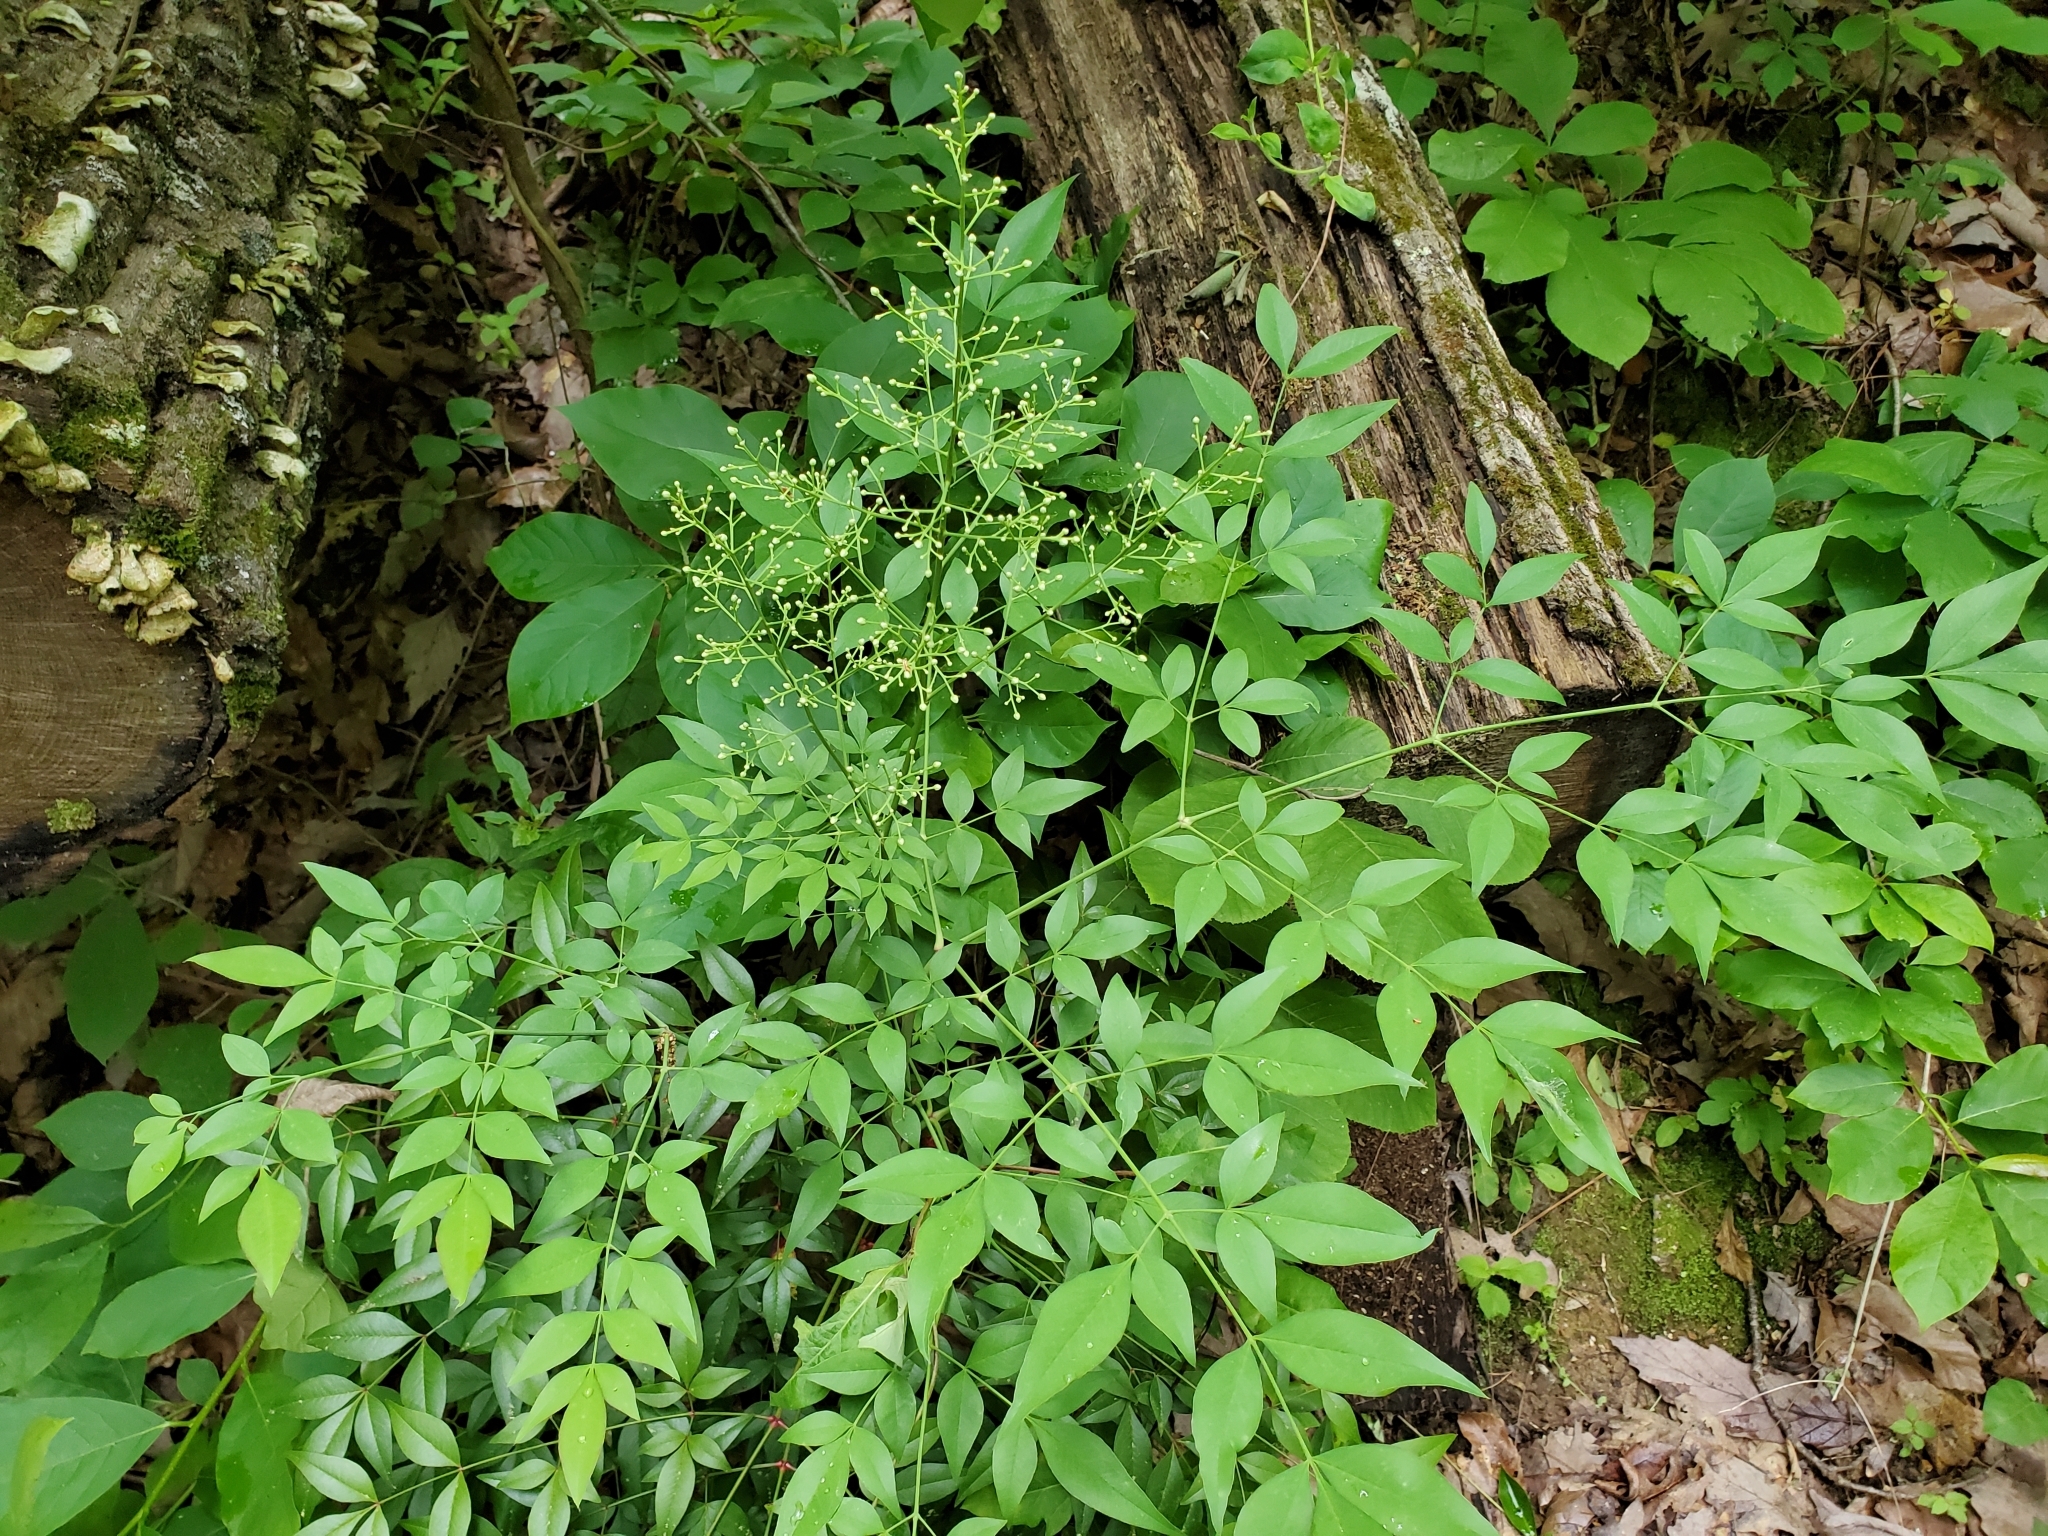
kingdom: Plantae
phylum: Tracheophyta
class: Magnoliopsida
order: Ranunculales
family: Berberidaceae
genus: Nandina
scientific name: Nandina domestica
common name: Sacred bamboo
